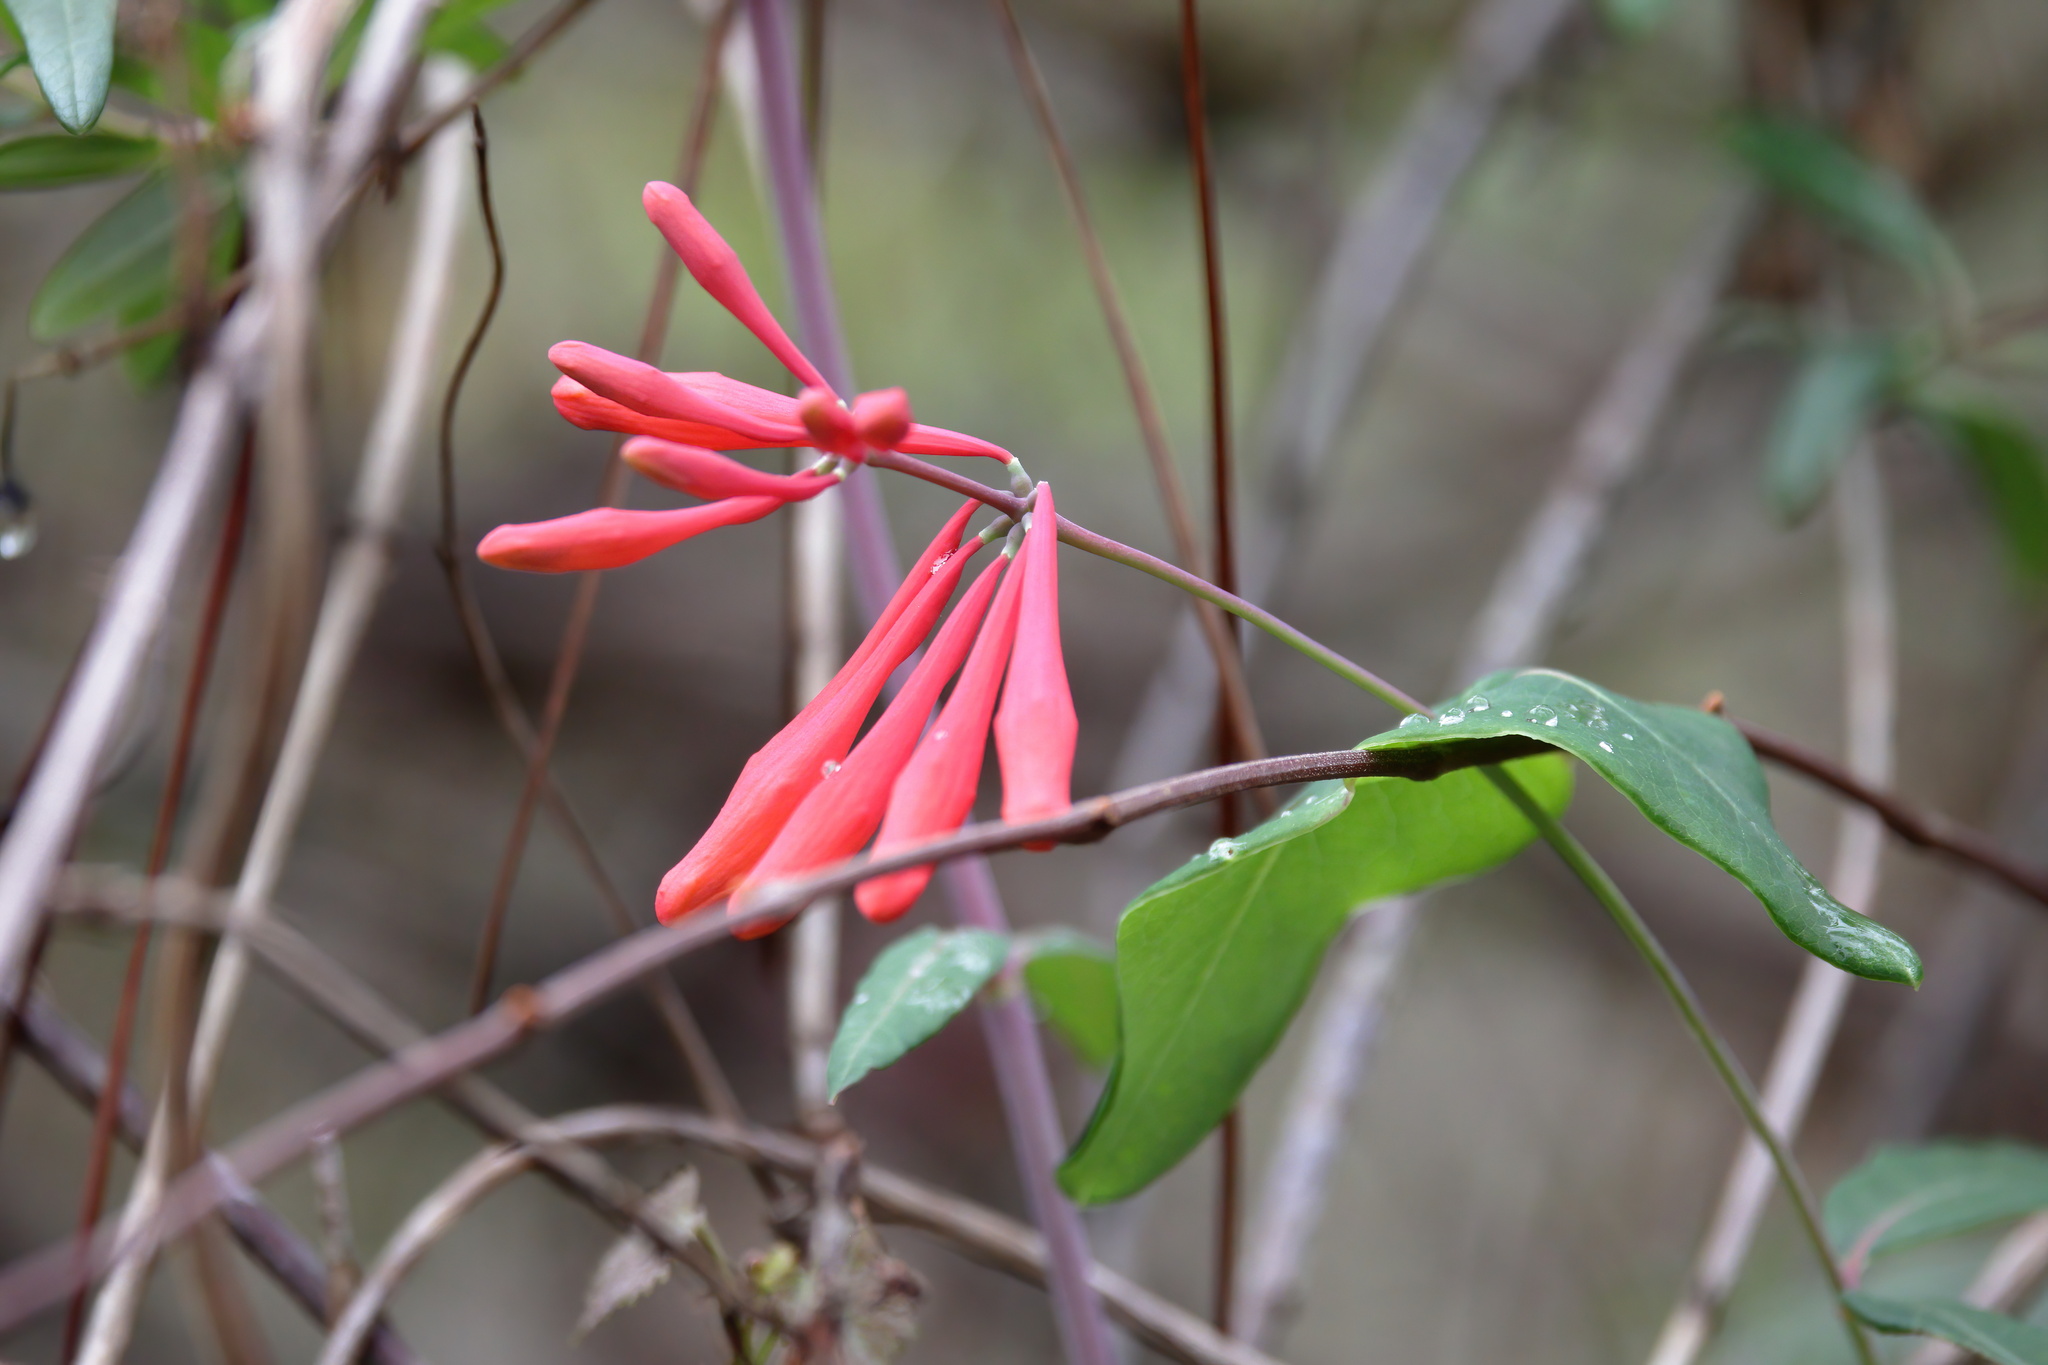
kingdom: Plantae
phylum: Tracheophyta
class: Magnoliopsida
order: Dipsacales
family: Caprifoliaceae
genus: Lonicera
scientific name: Lonicera sempervirens
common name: Coral honeysuckle
